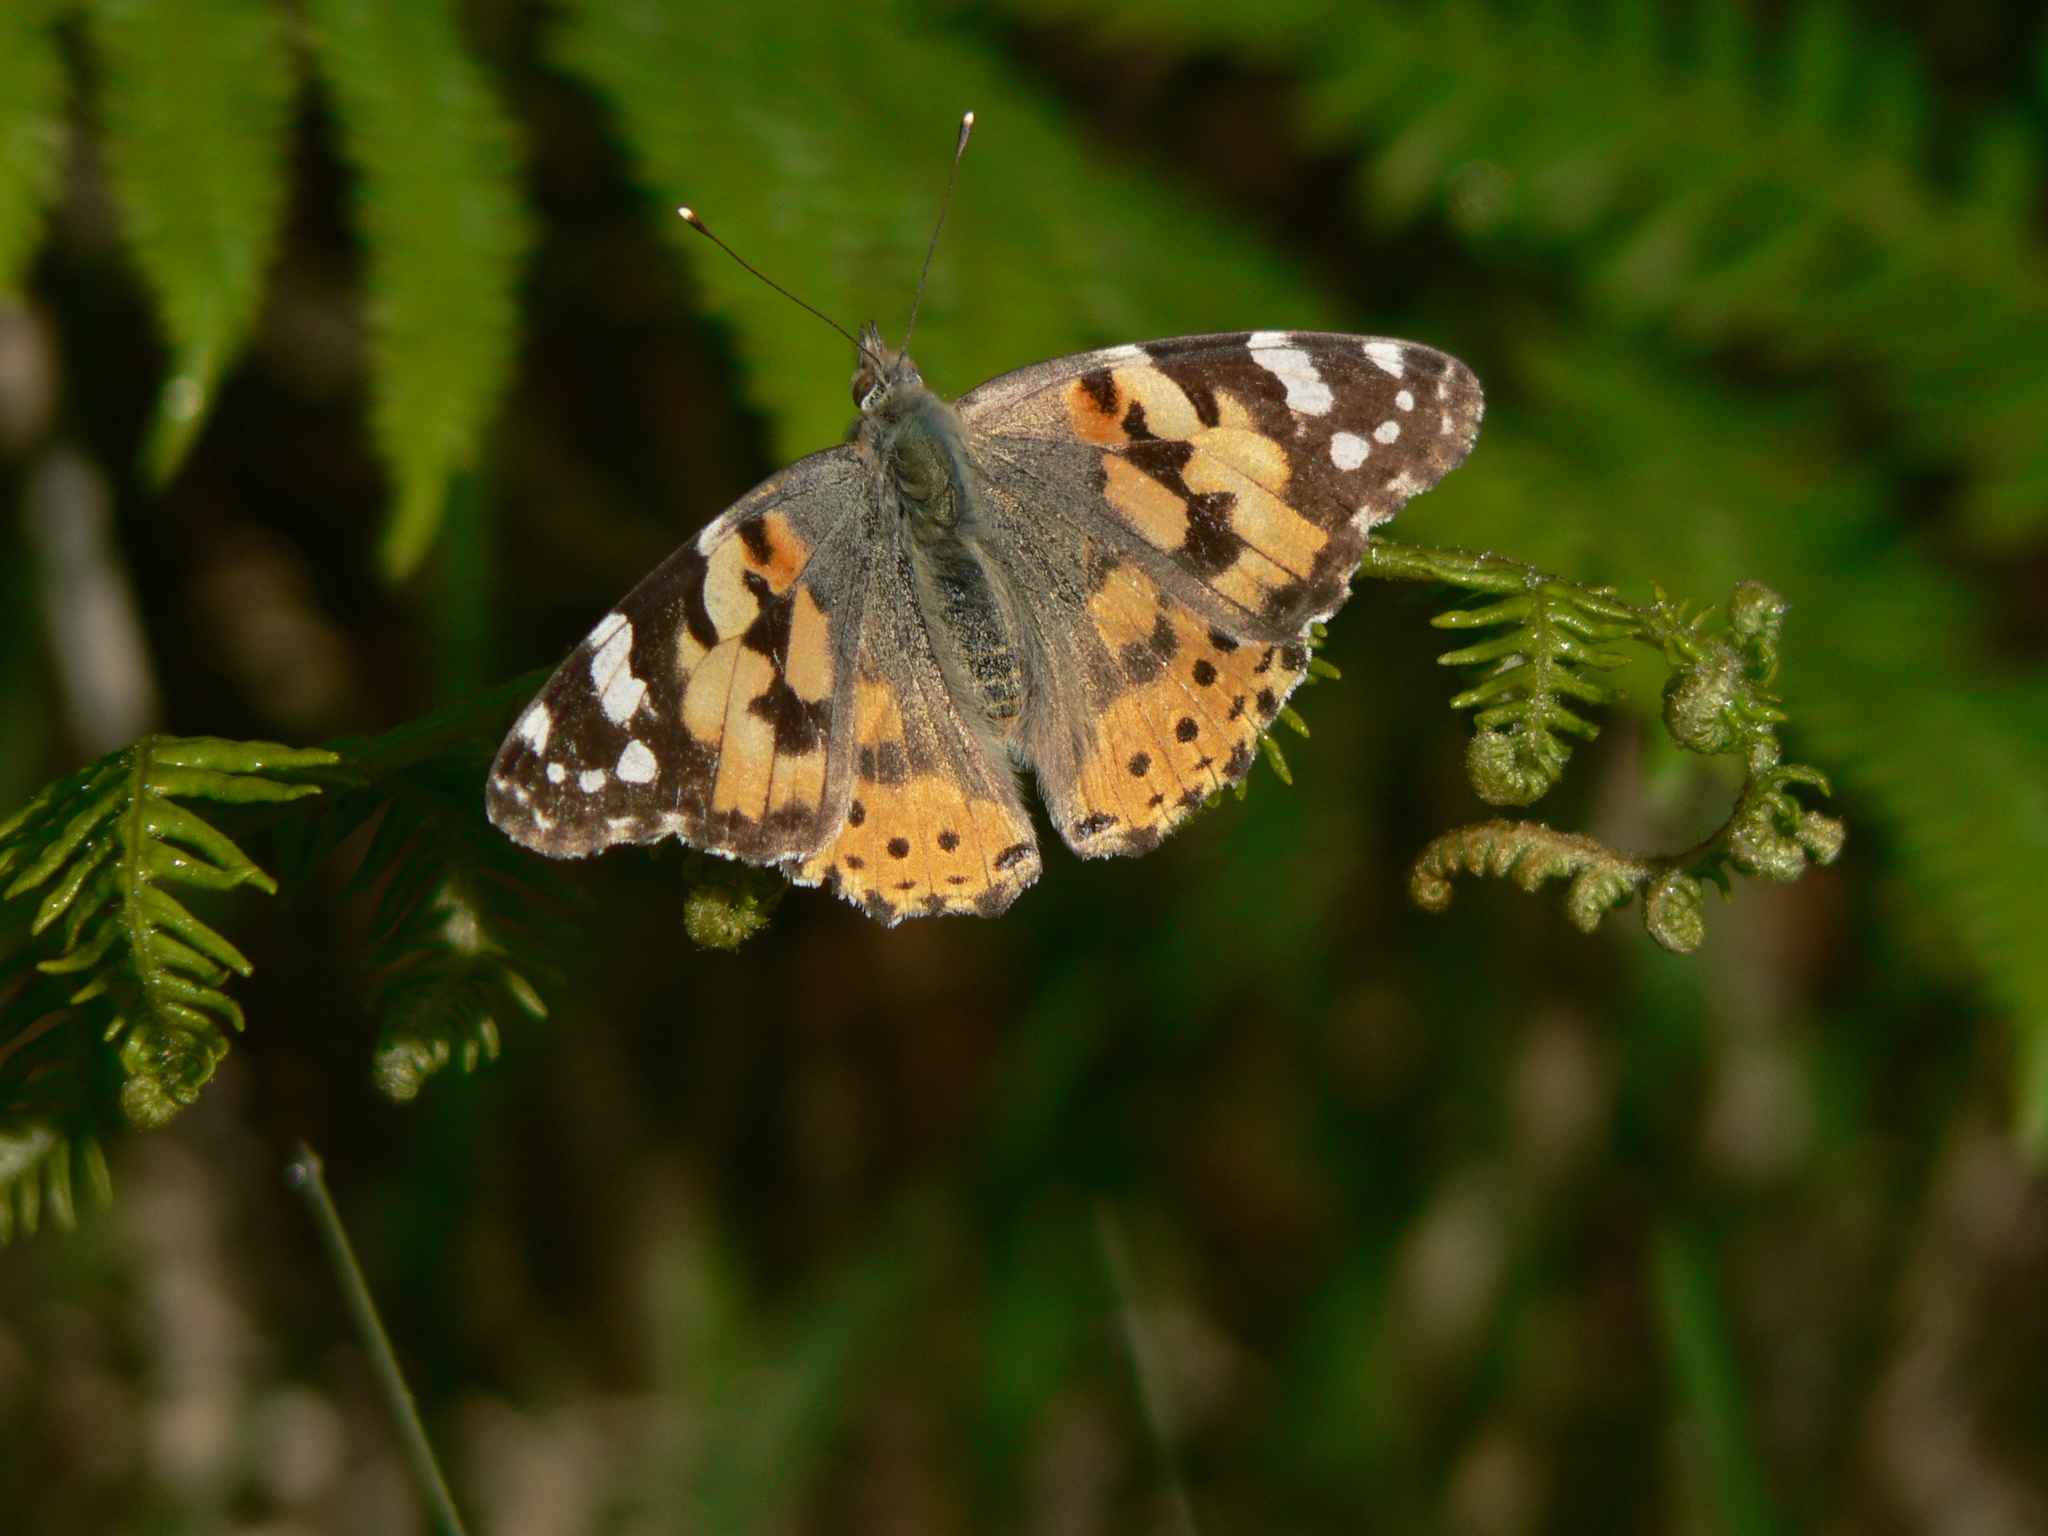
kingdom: Animalia
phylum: Arthropoda
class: Insecta
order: Lepidoptera
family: Nymphalidae
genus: Vanessa
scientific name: Vanessa cardui
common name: Painted lady
